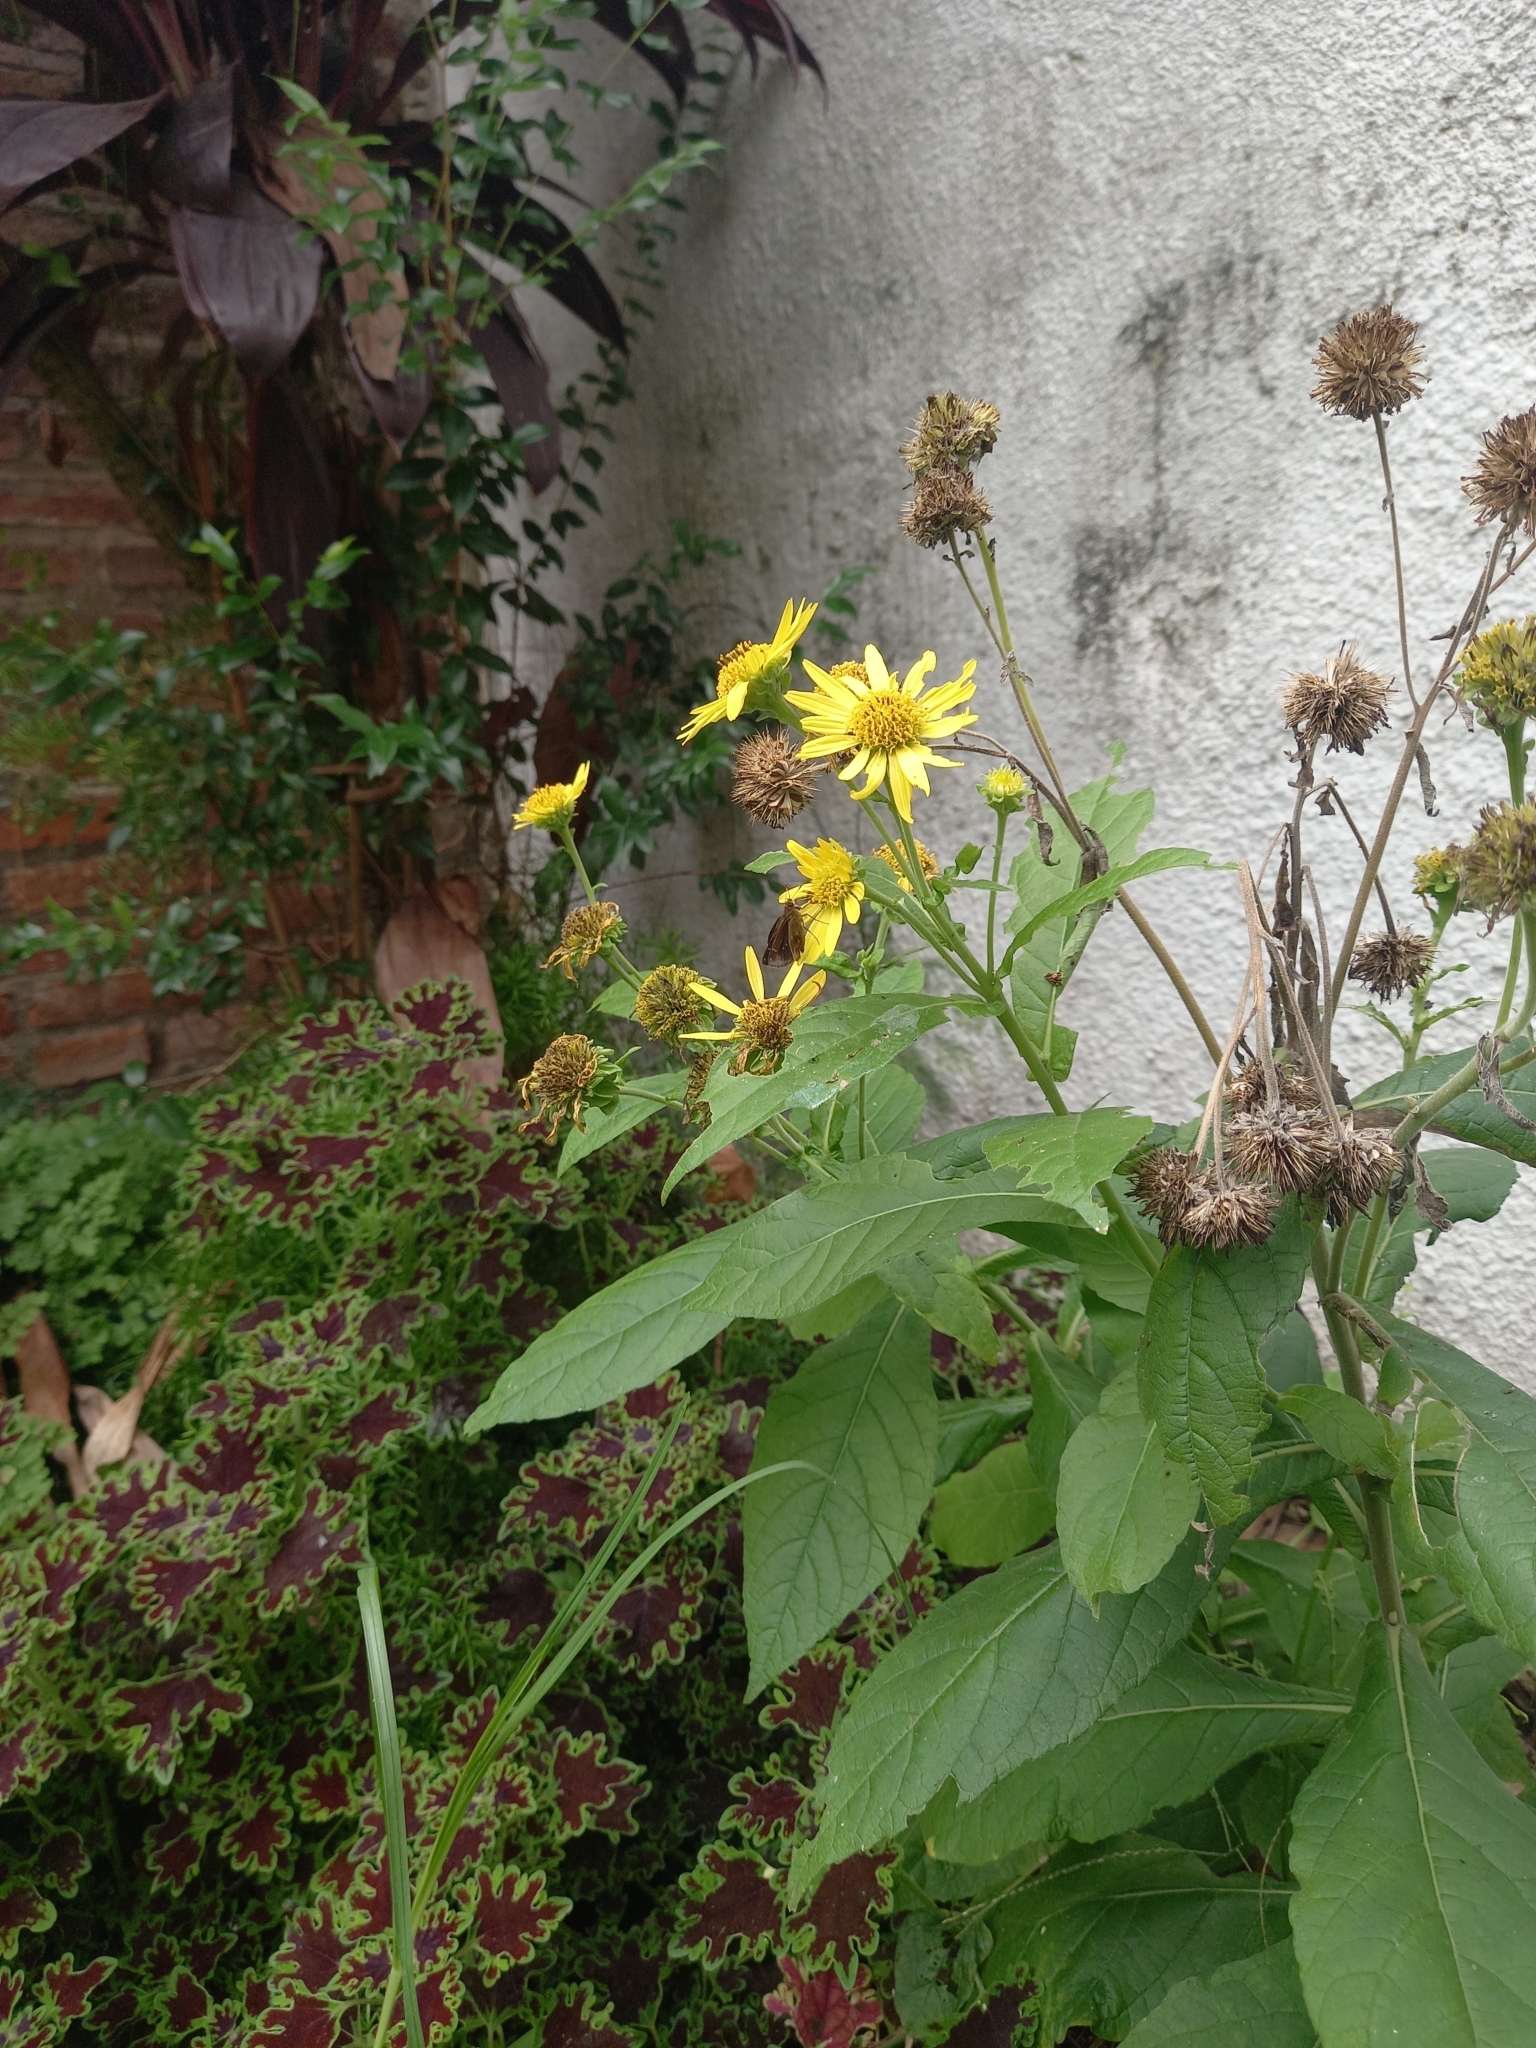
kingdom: Animalia
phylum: Arthropoda
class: Insecta
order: Lepidoptera
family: Hesperiidae
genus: Cymaenes
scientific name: Cymaenes
